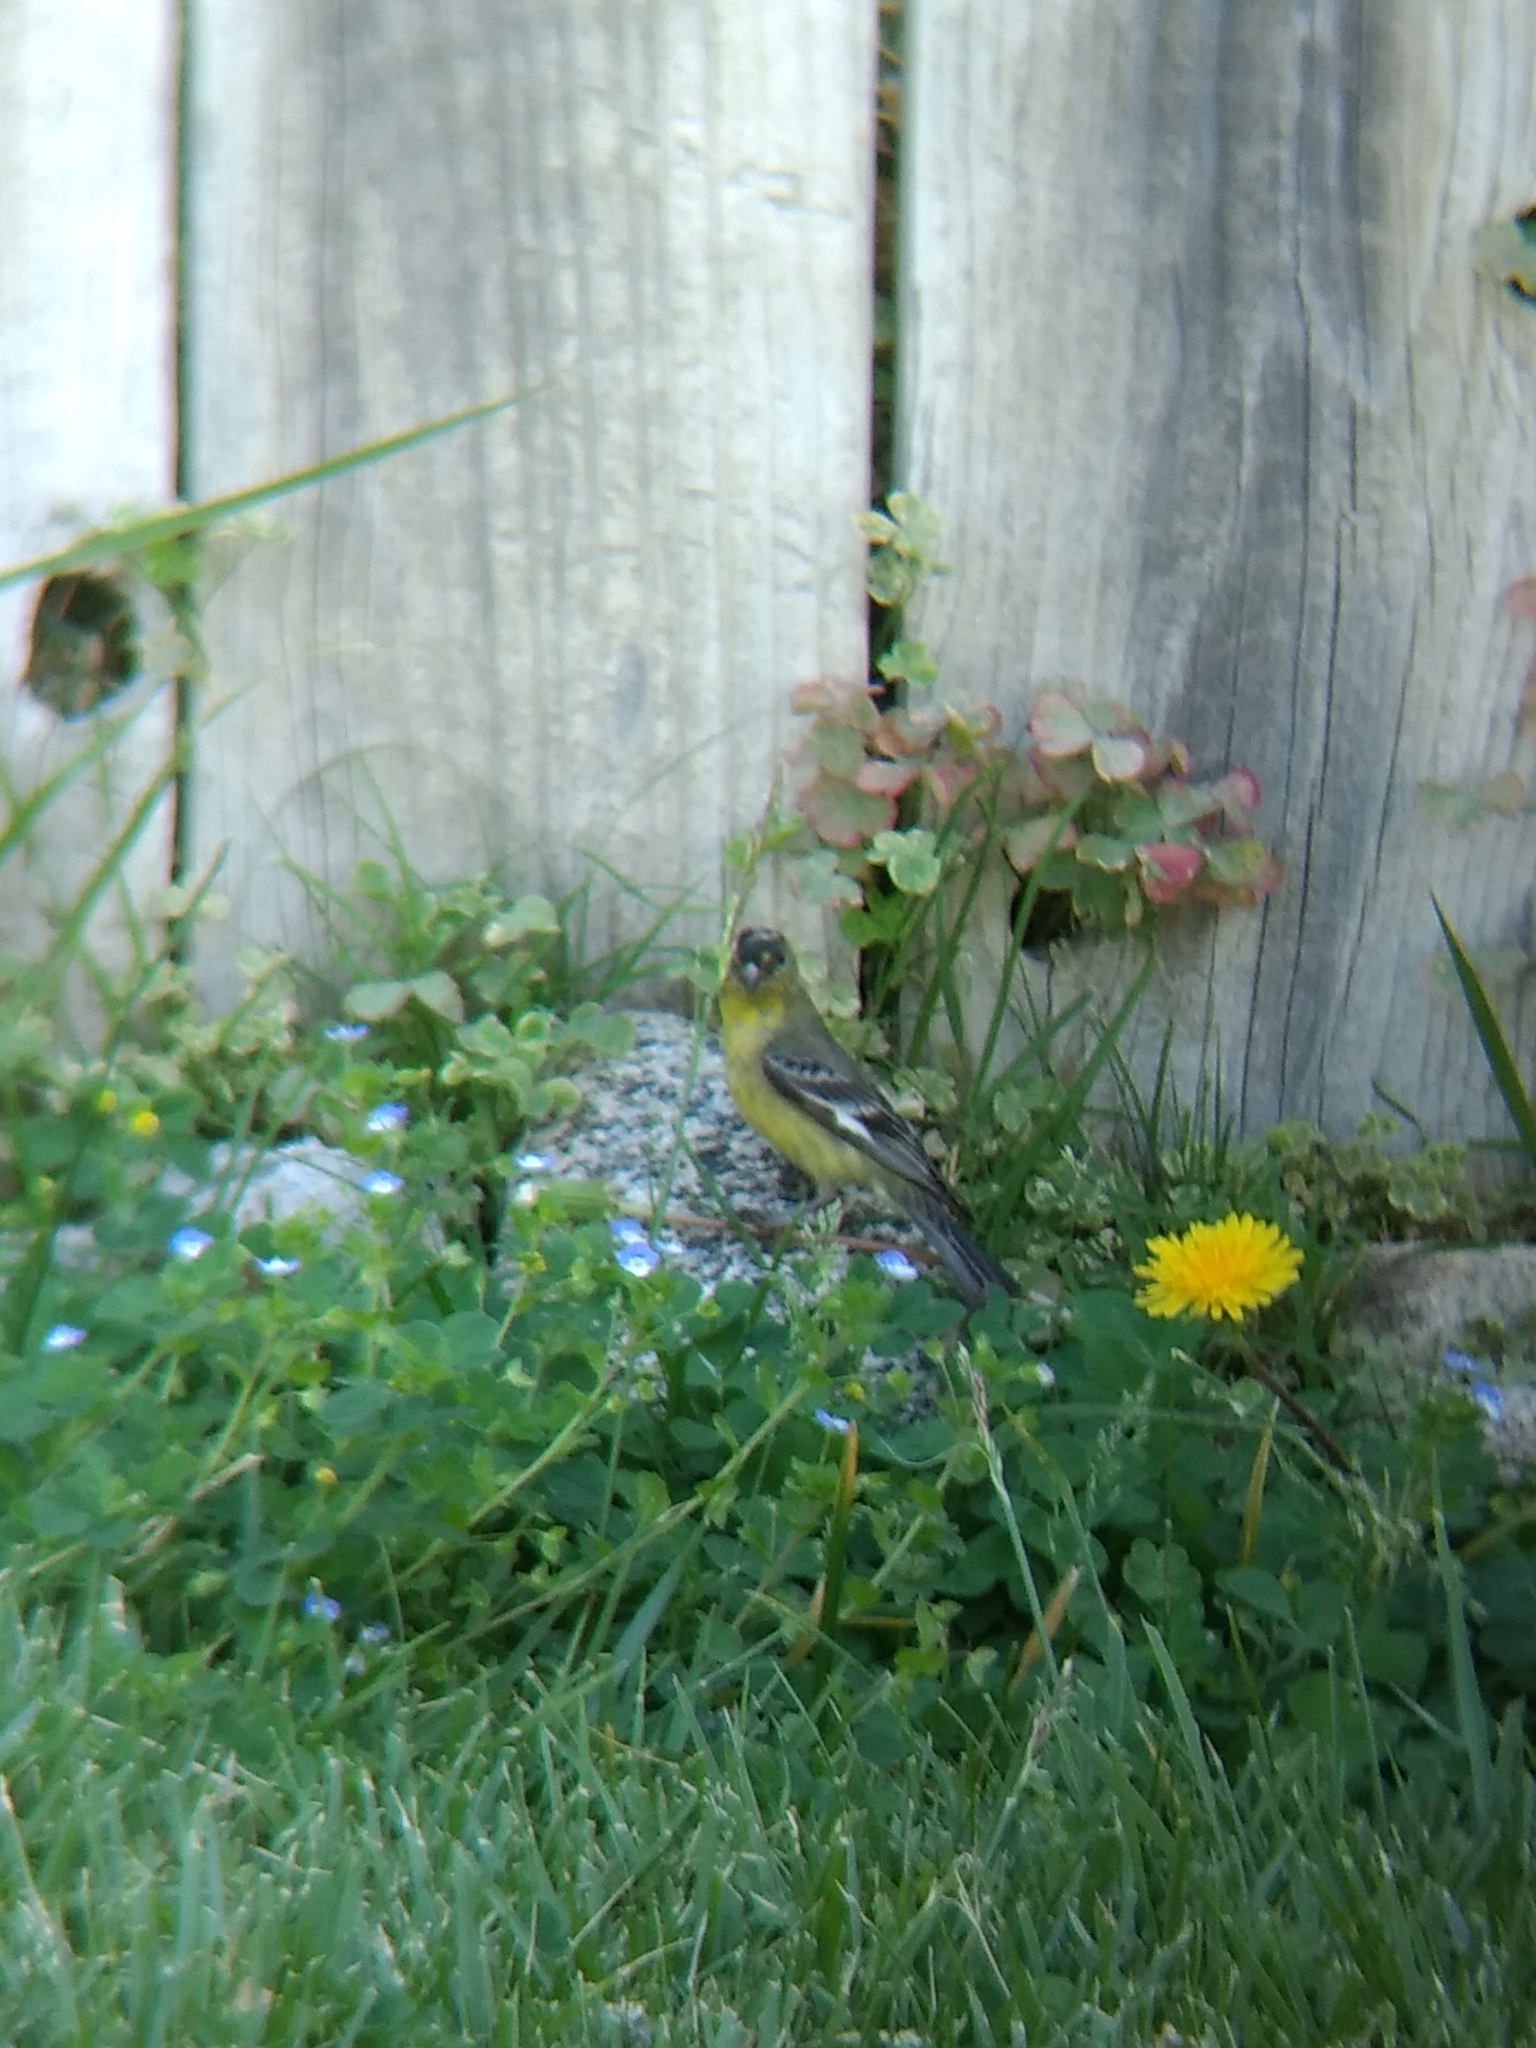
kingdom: Animalia
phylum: Chordata
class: Aves
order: Passeriformes
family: Fringillidae
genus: Spinus
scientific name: Spinus psaltria
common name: Lesser goldfinch
